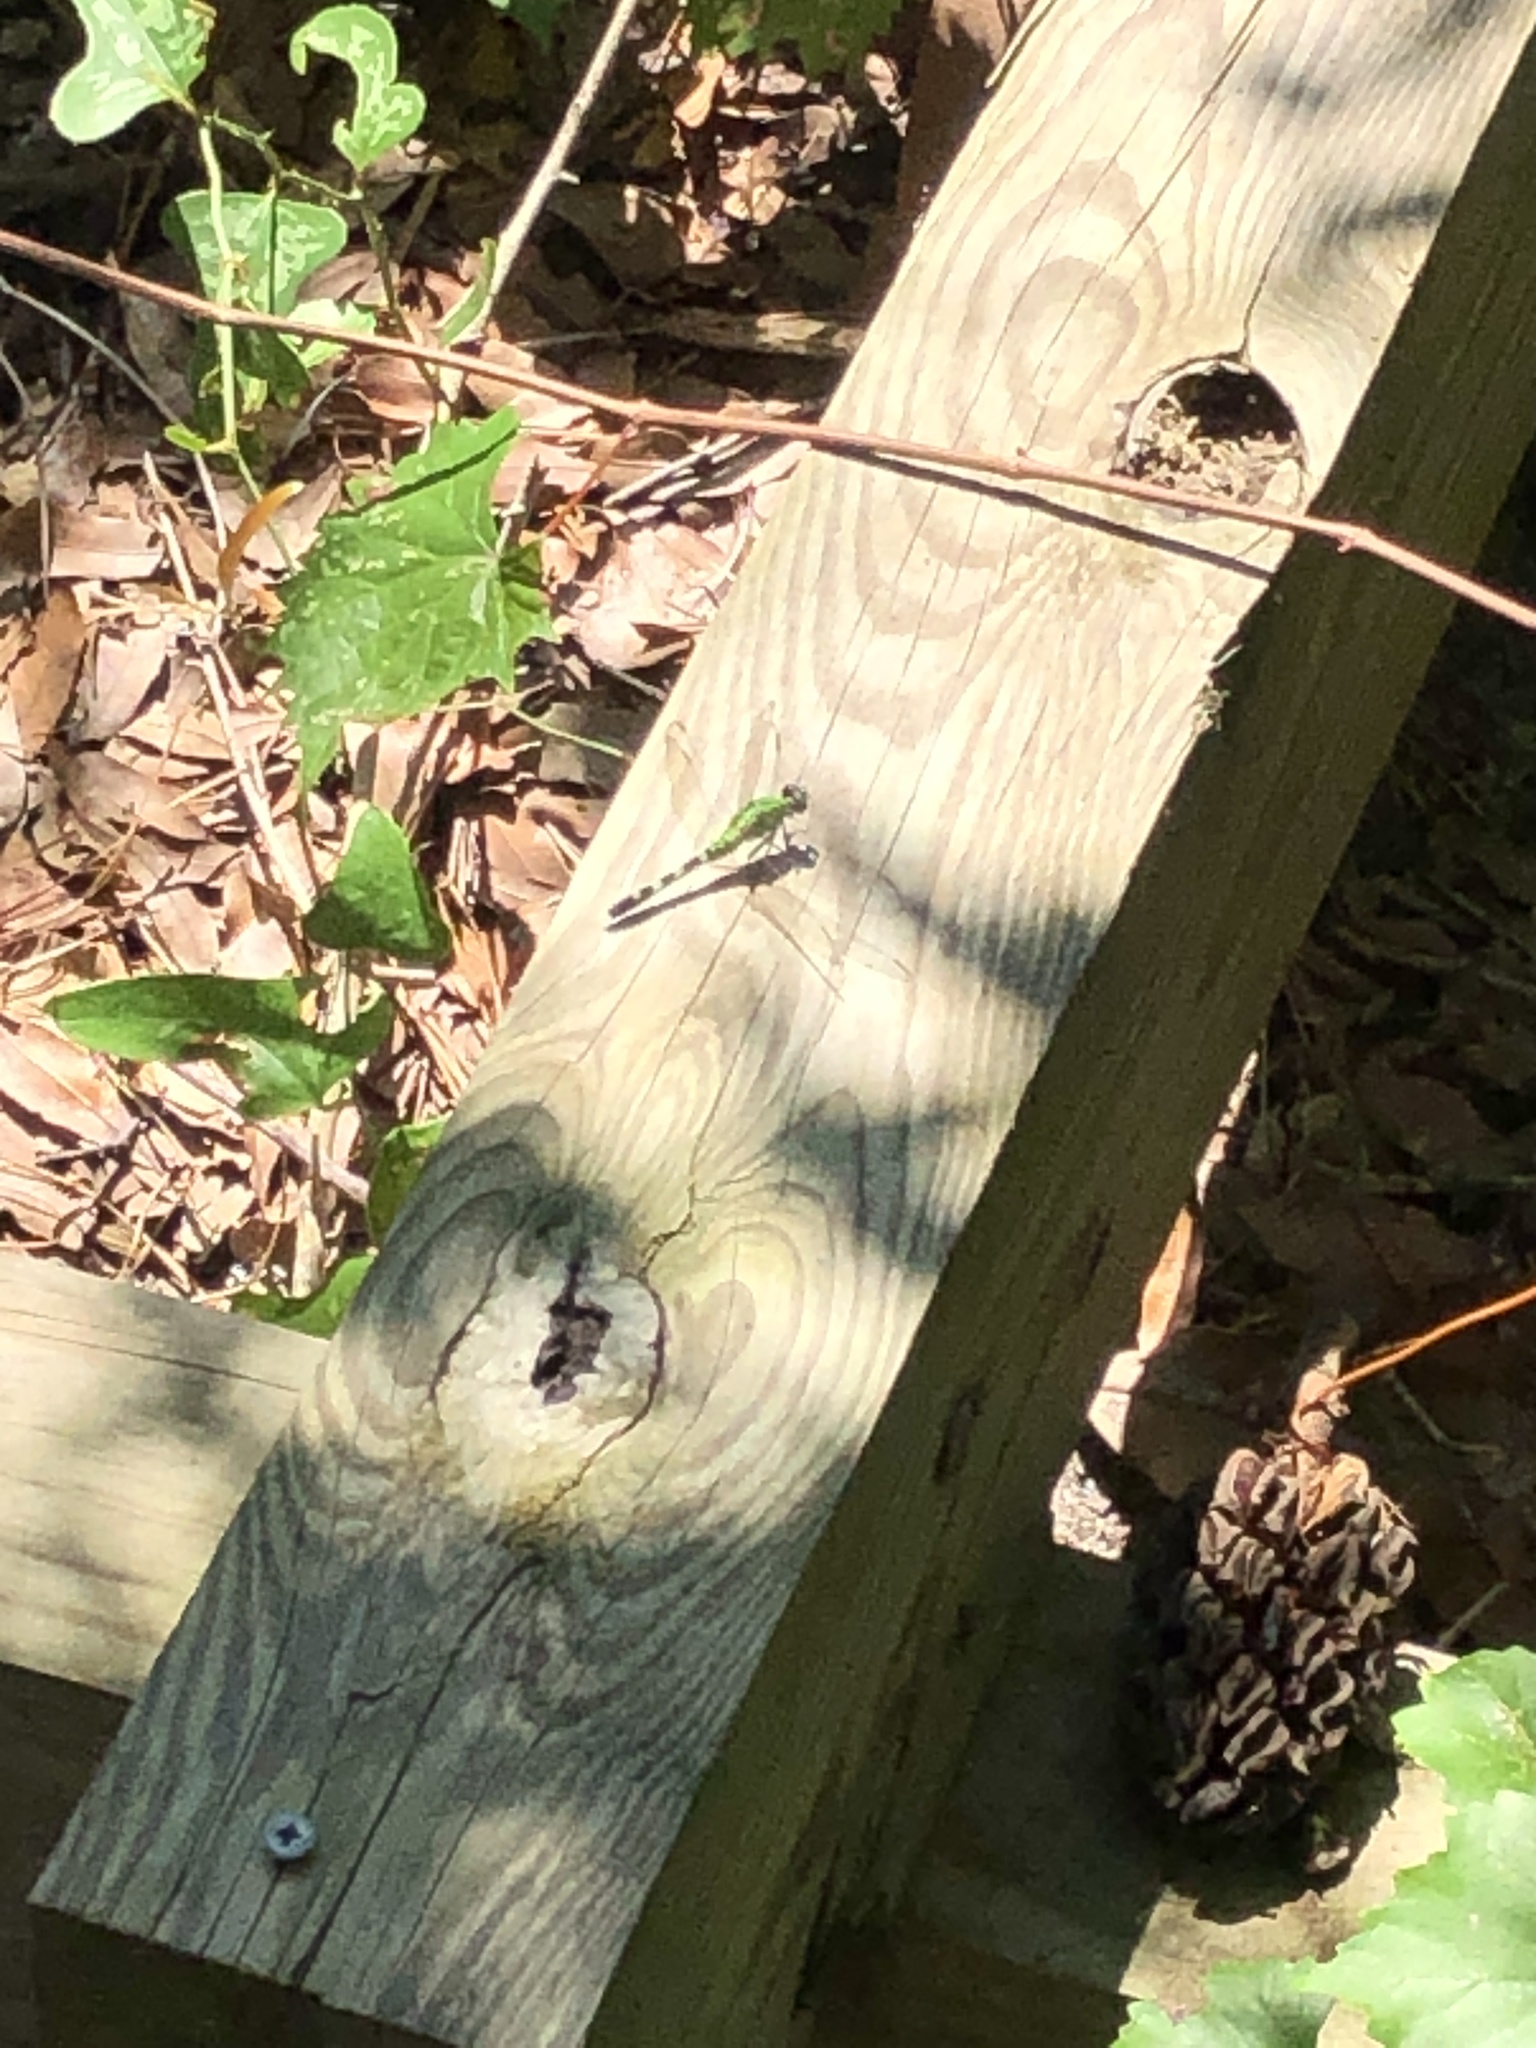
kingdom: Animalia
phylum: Arthropoda
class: Insecta
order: Odonata
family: Libellulidae
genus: Erythemis
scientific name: Erythemis simplicicollis
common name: Eastern pondhawk
